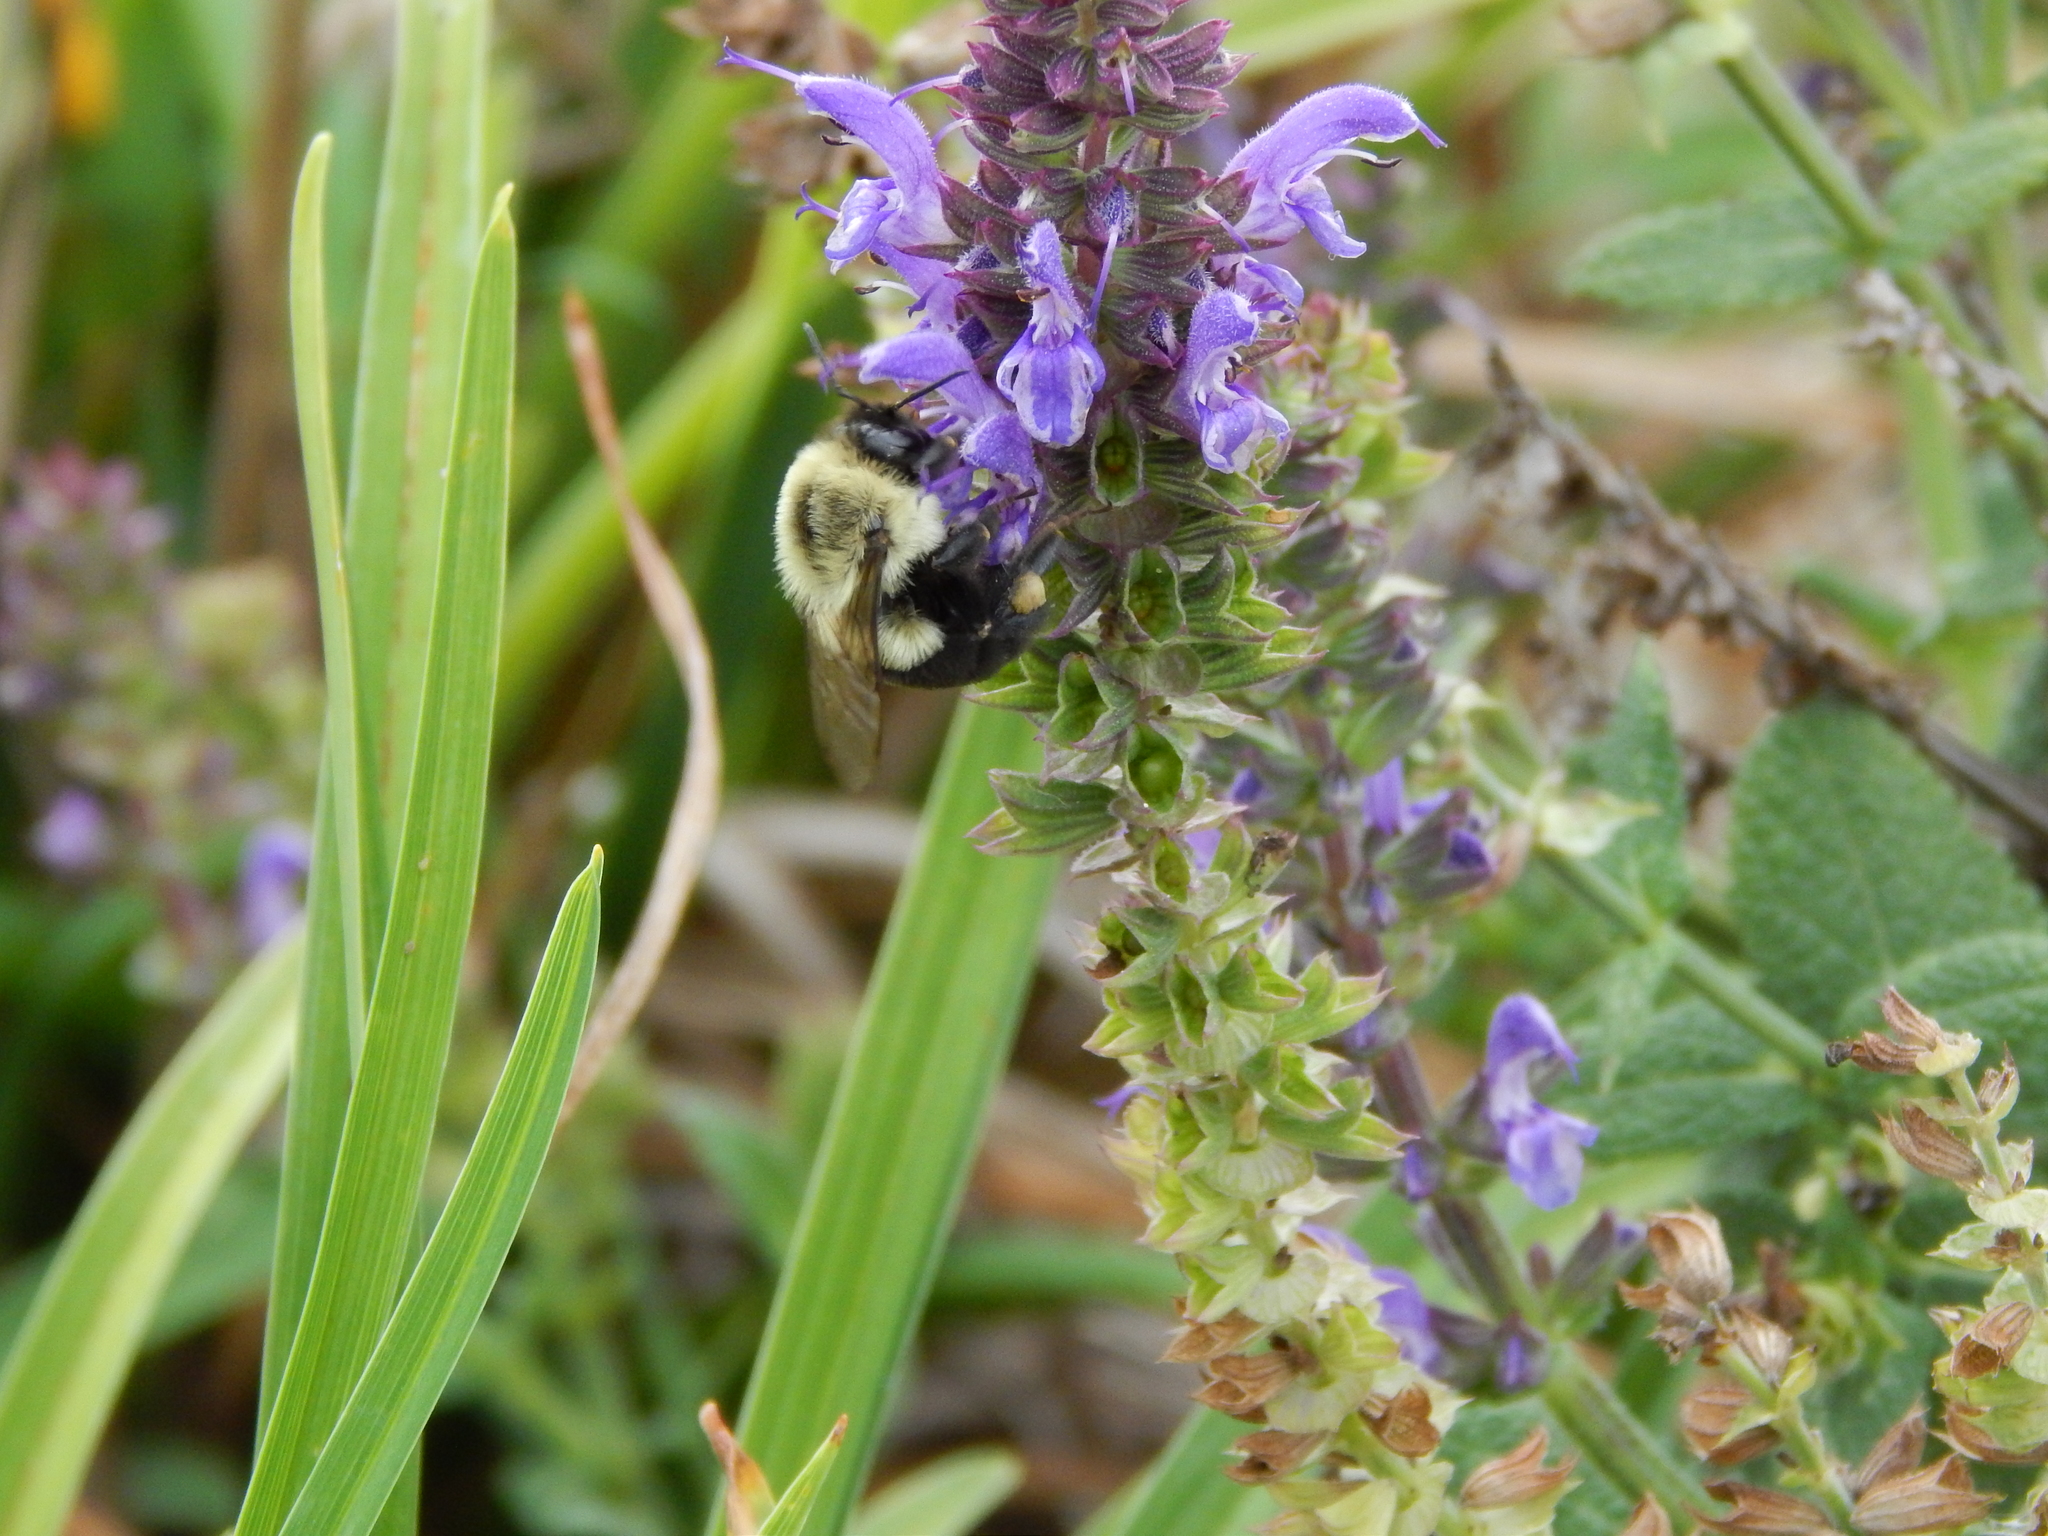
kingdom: Animalia
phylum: Arthropoda
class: Insecta
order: Hymenoptera
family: Apidae
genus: Bombus
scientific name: Bombus impatiens
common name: Common eastern bumble bee
